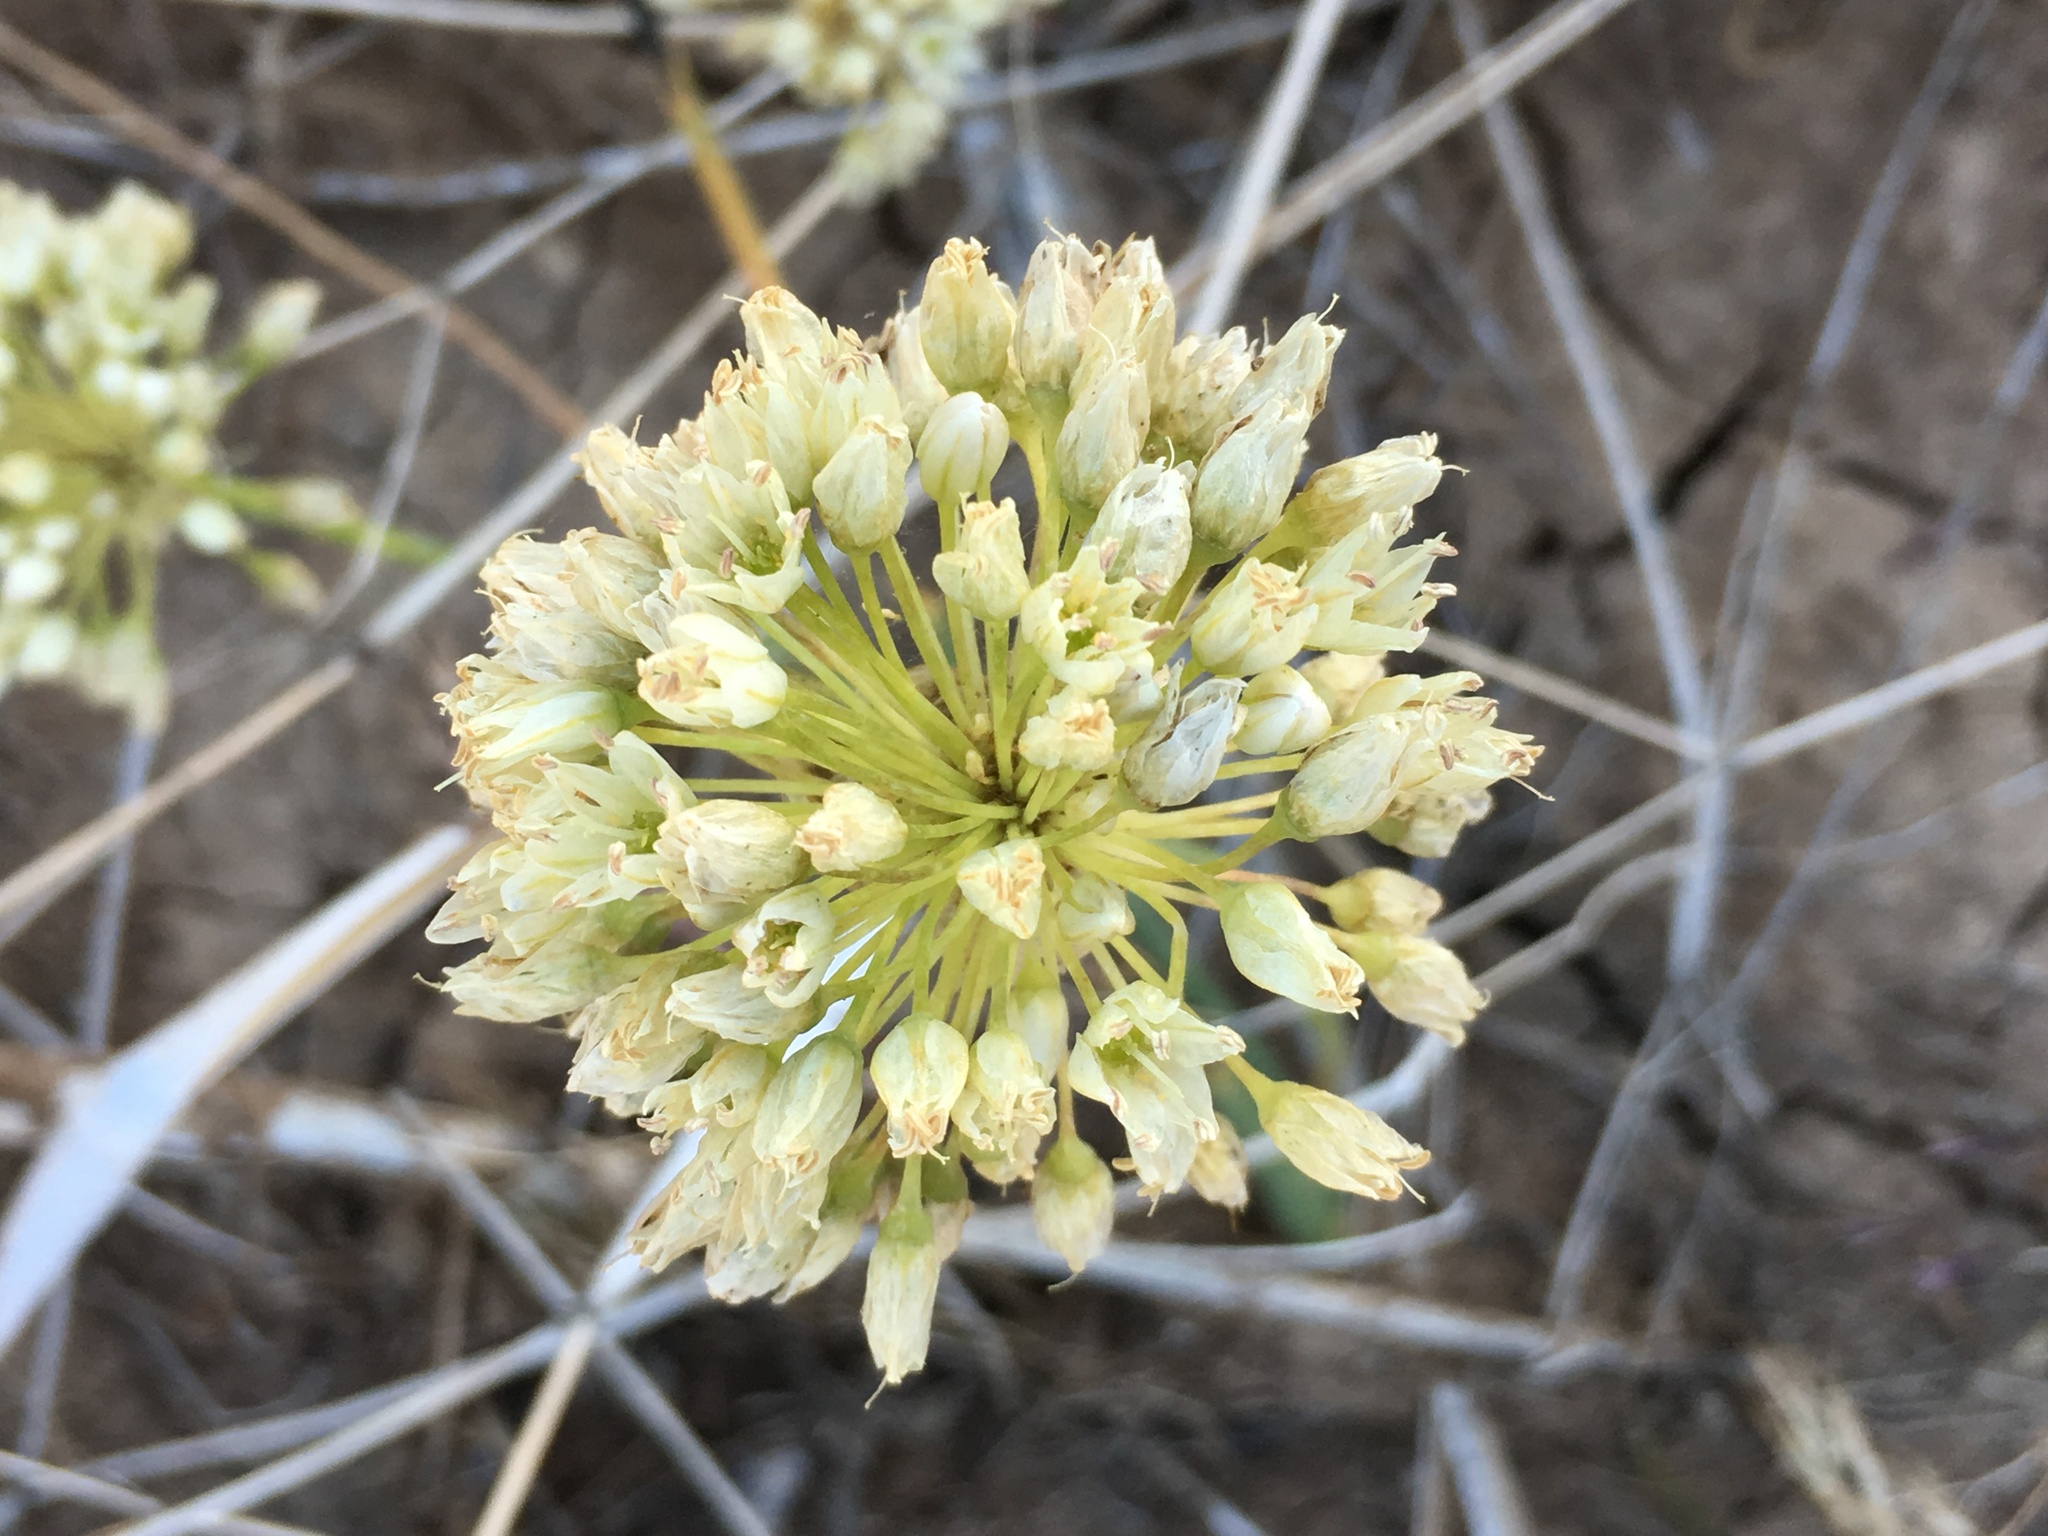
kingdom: Plantae
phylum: Tracheophyta
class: Liliopsida
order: Asparagales
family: Amaryllidaceae
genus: Allium
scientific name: Allium howellii
